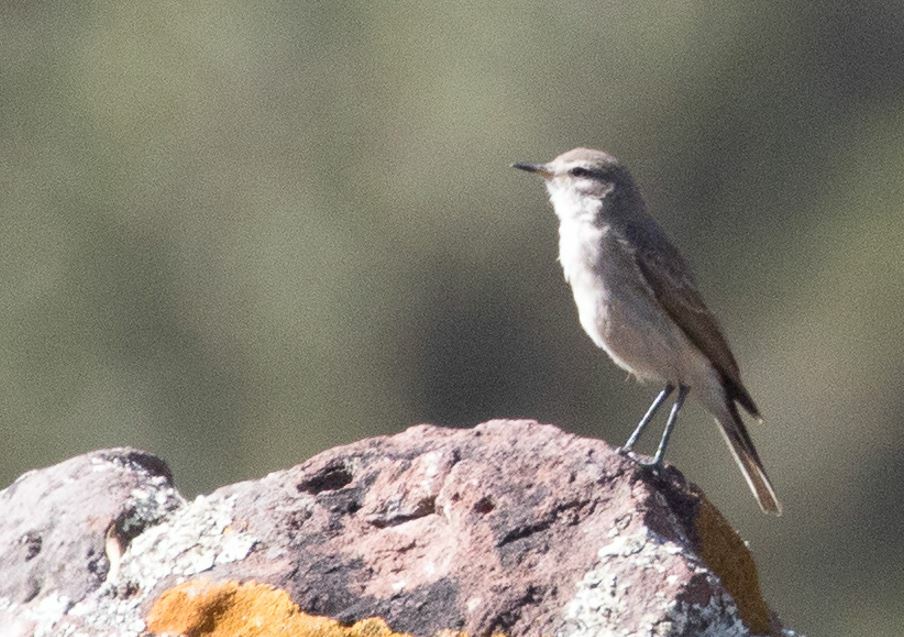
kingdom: Animalia
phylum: Chordata
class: Aves
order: Passeriformes
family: Tyrannidae
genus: Muscisaxicola
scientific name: Muscisaxicola maculirostris
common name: Spot-billed ground tyrant
